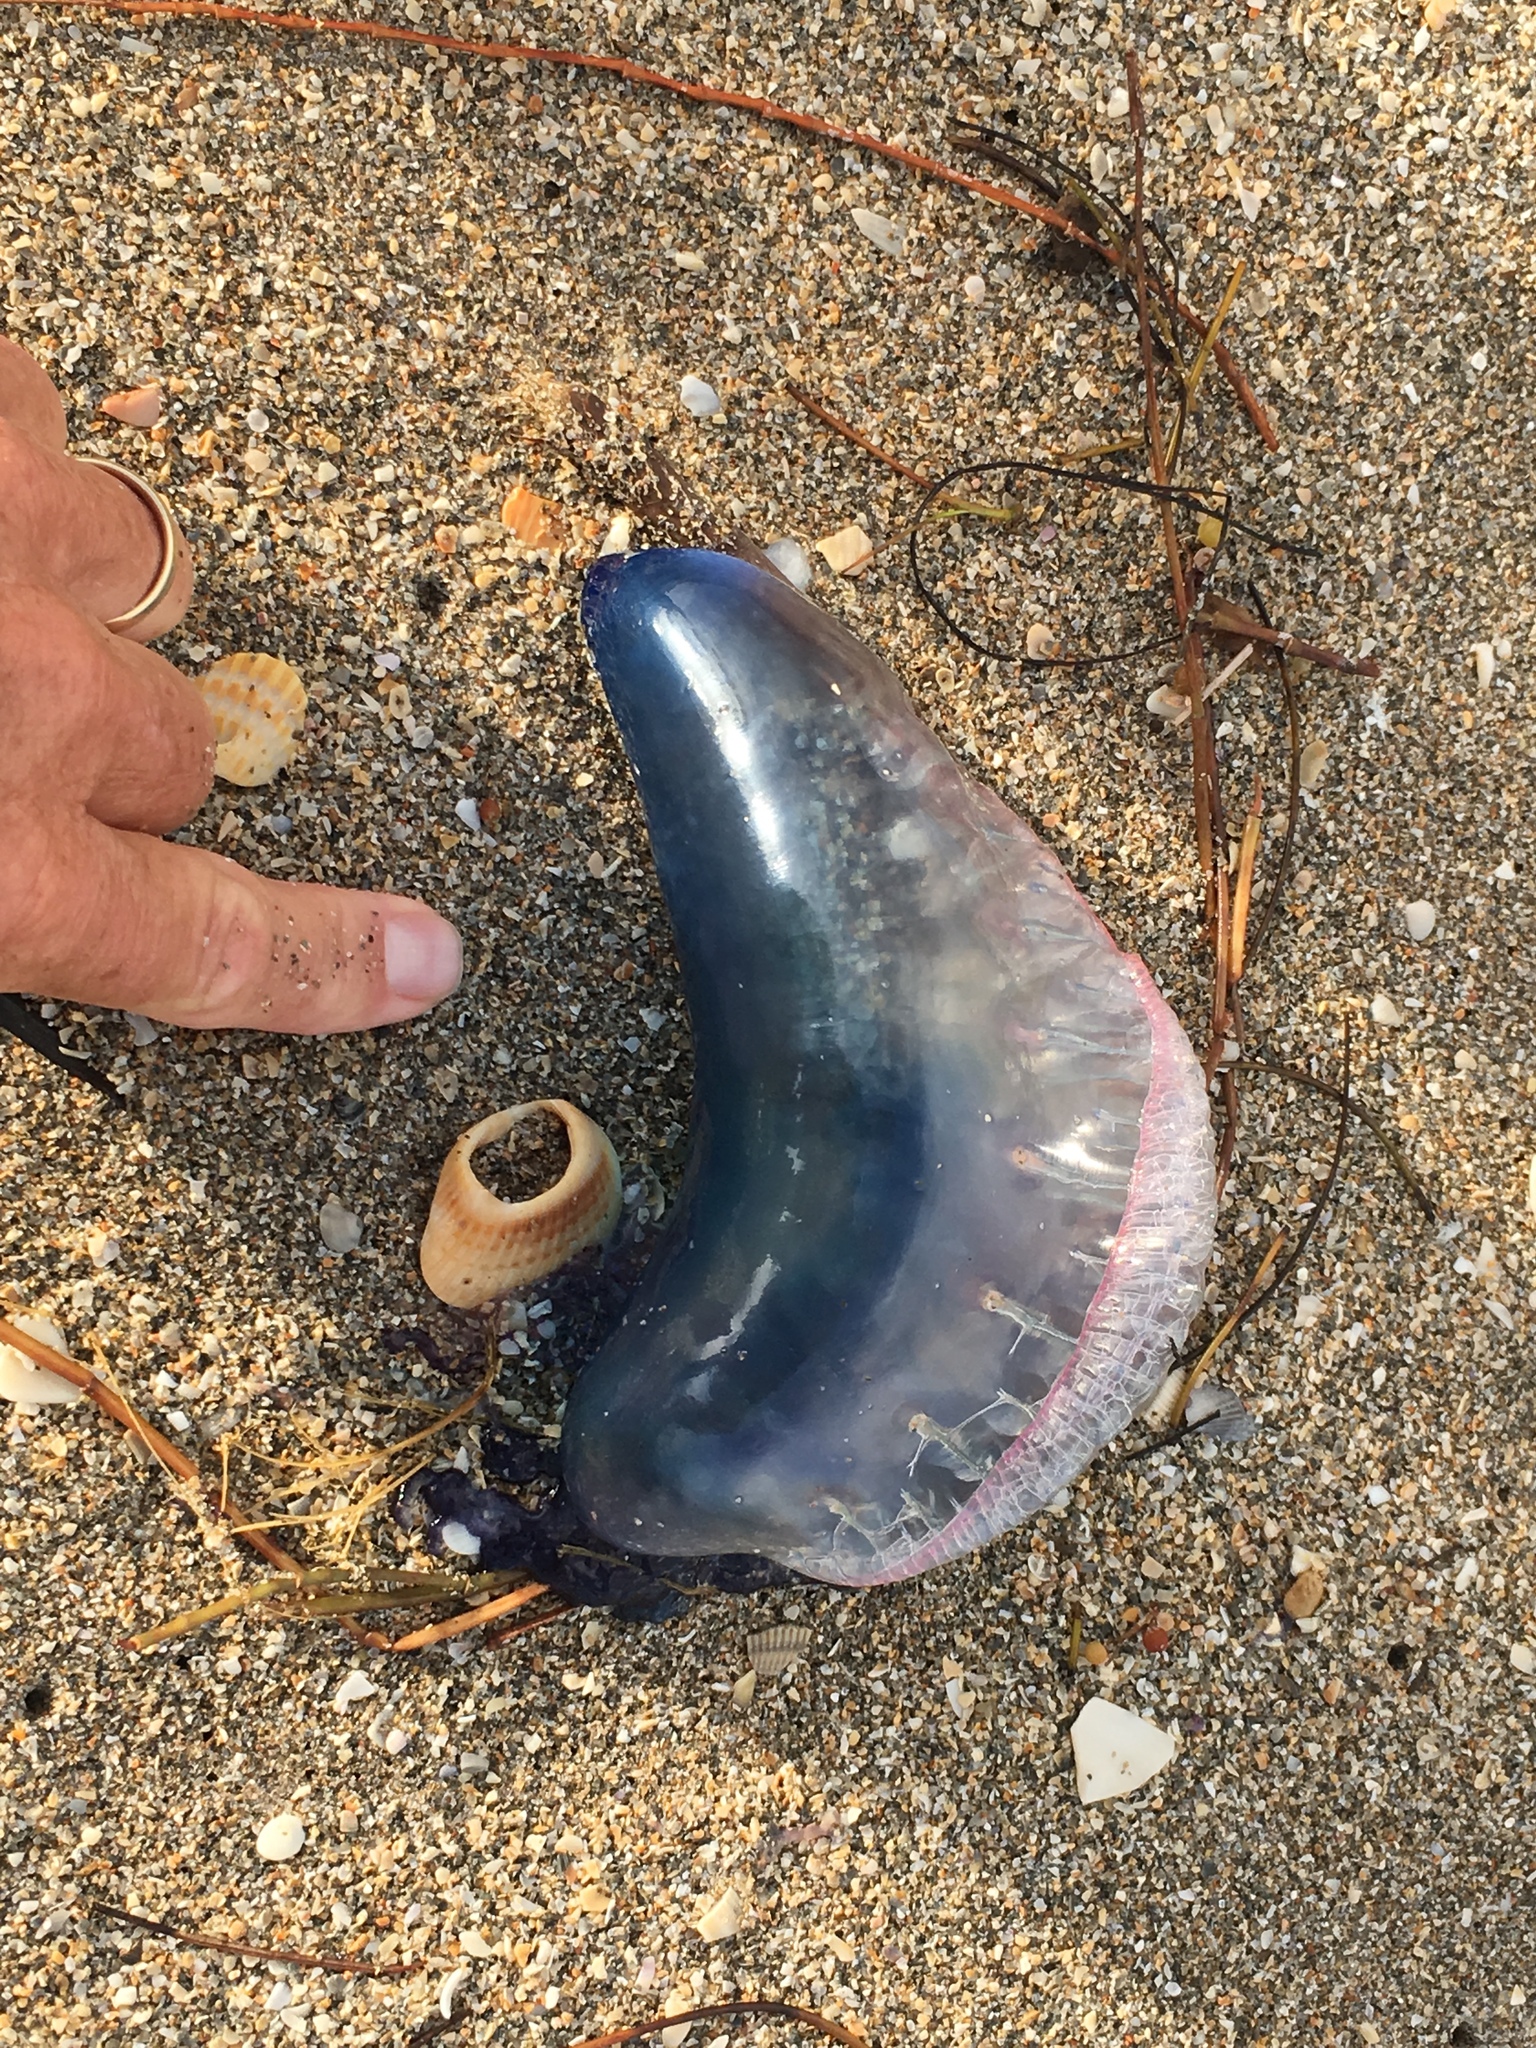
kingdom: Animalia
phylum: Cnidaria
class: Hydrozoa
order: Siphonophorae
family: Physaliidae
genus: Physalia
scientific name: Physalia physalis
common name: Portuguese man-of-war
